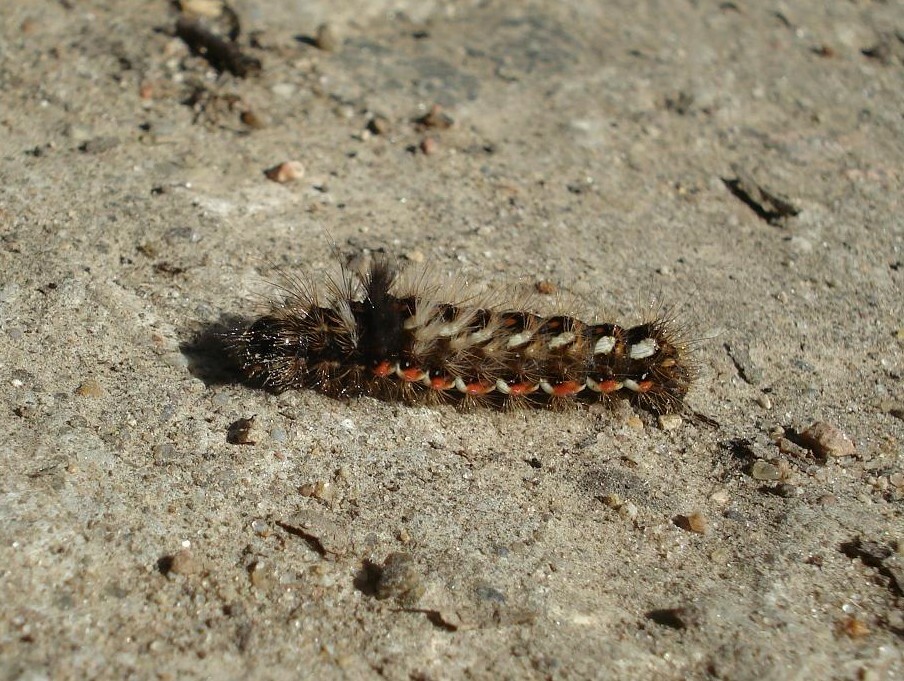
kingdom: Animalia
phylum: Arthropoda
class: Insecta
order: Lepidoptera
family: Noctuidae
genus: Acronicta
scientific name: Acronicta rumicis
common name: Knot grass
